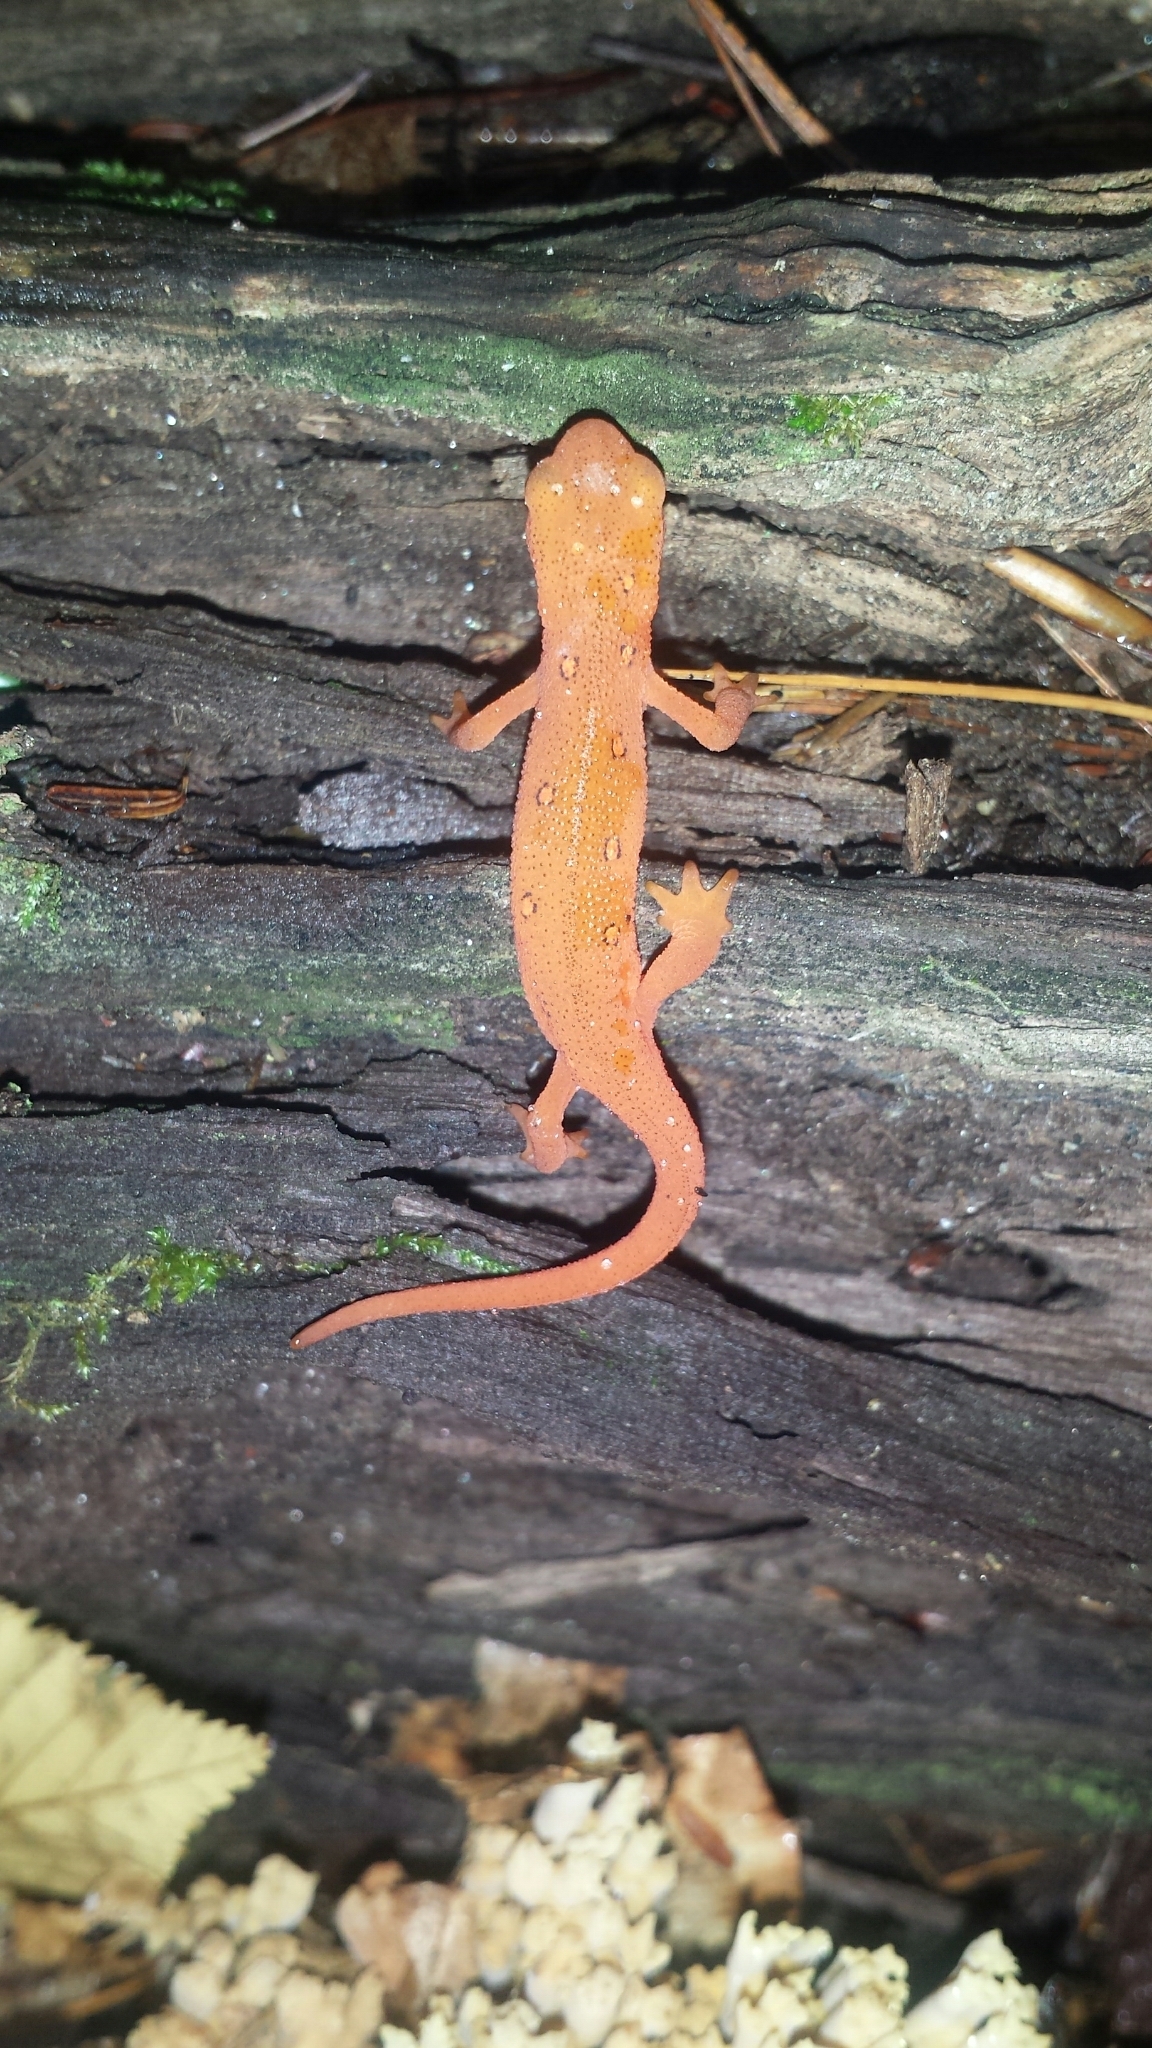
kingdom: Animalia
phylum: Chordata
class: Amphibia
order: Caudata
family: Salamandridae
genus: Notophthalmus
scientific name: Notophthalmus viridescens
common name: Eastern newt
